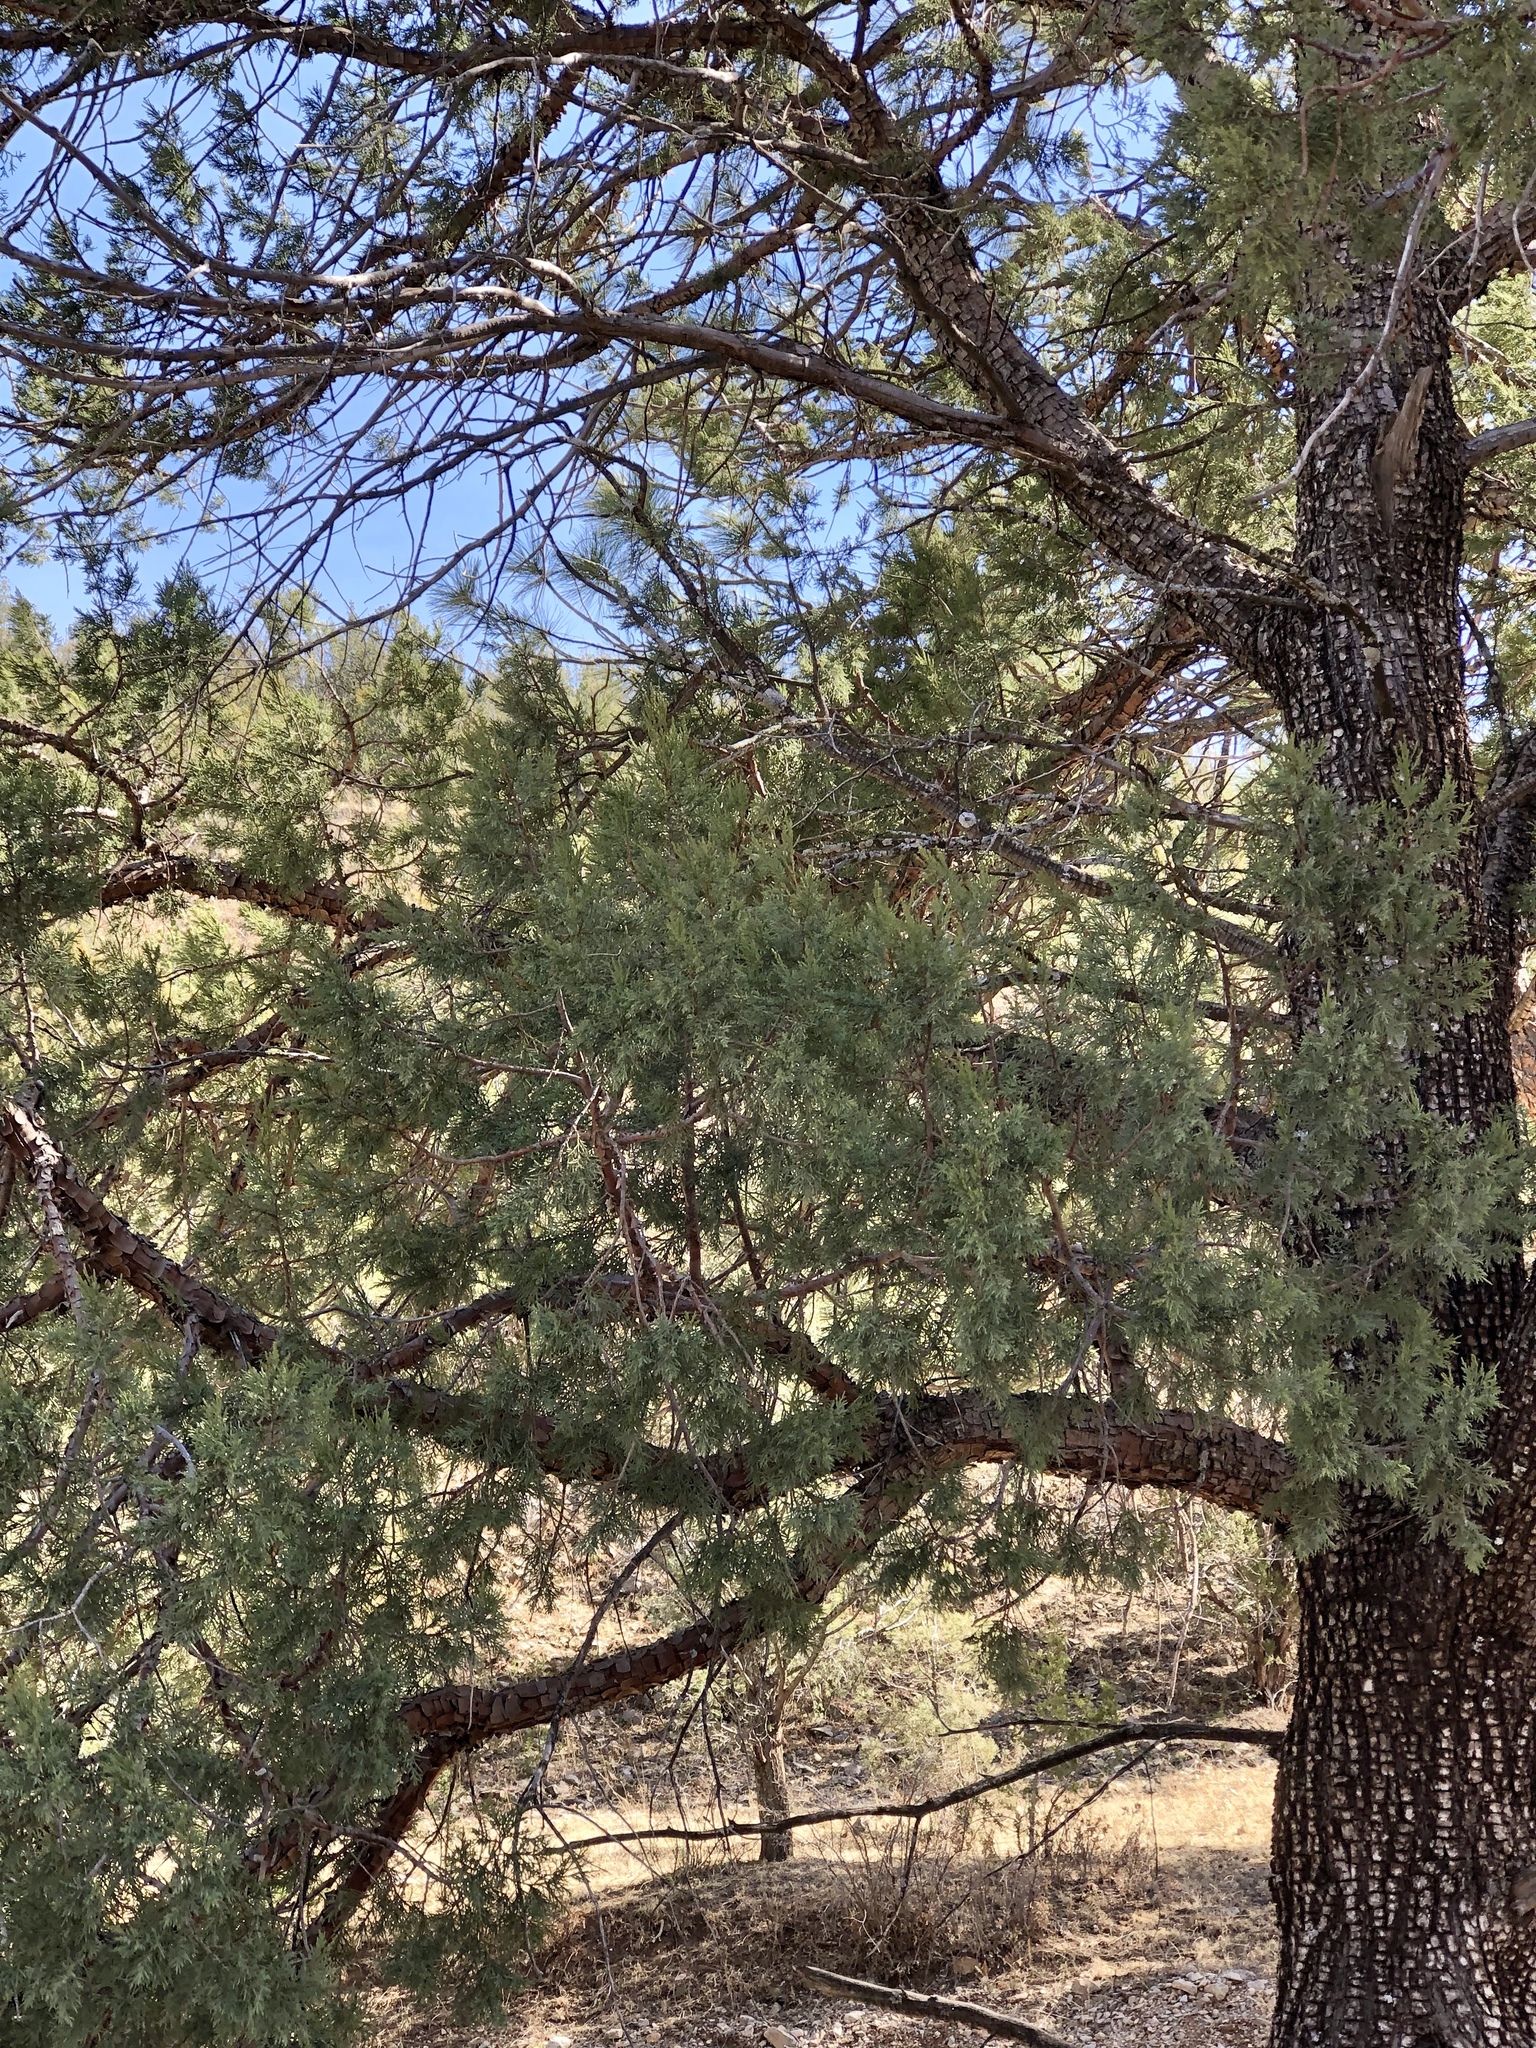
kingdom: Plantae
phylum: Tracheophyta
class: Pinopsida
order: Pinales
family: Cupressaceae
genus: Juniperus
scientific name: Juniperus deppeana
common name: Alligator juniper
